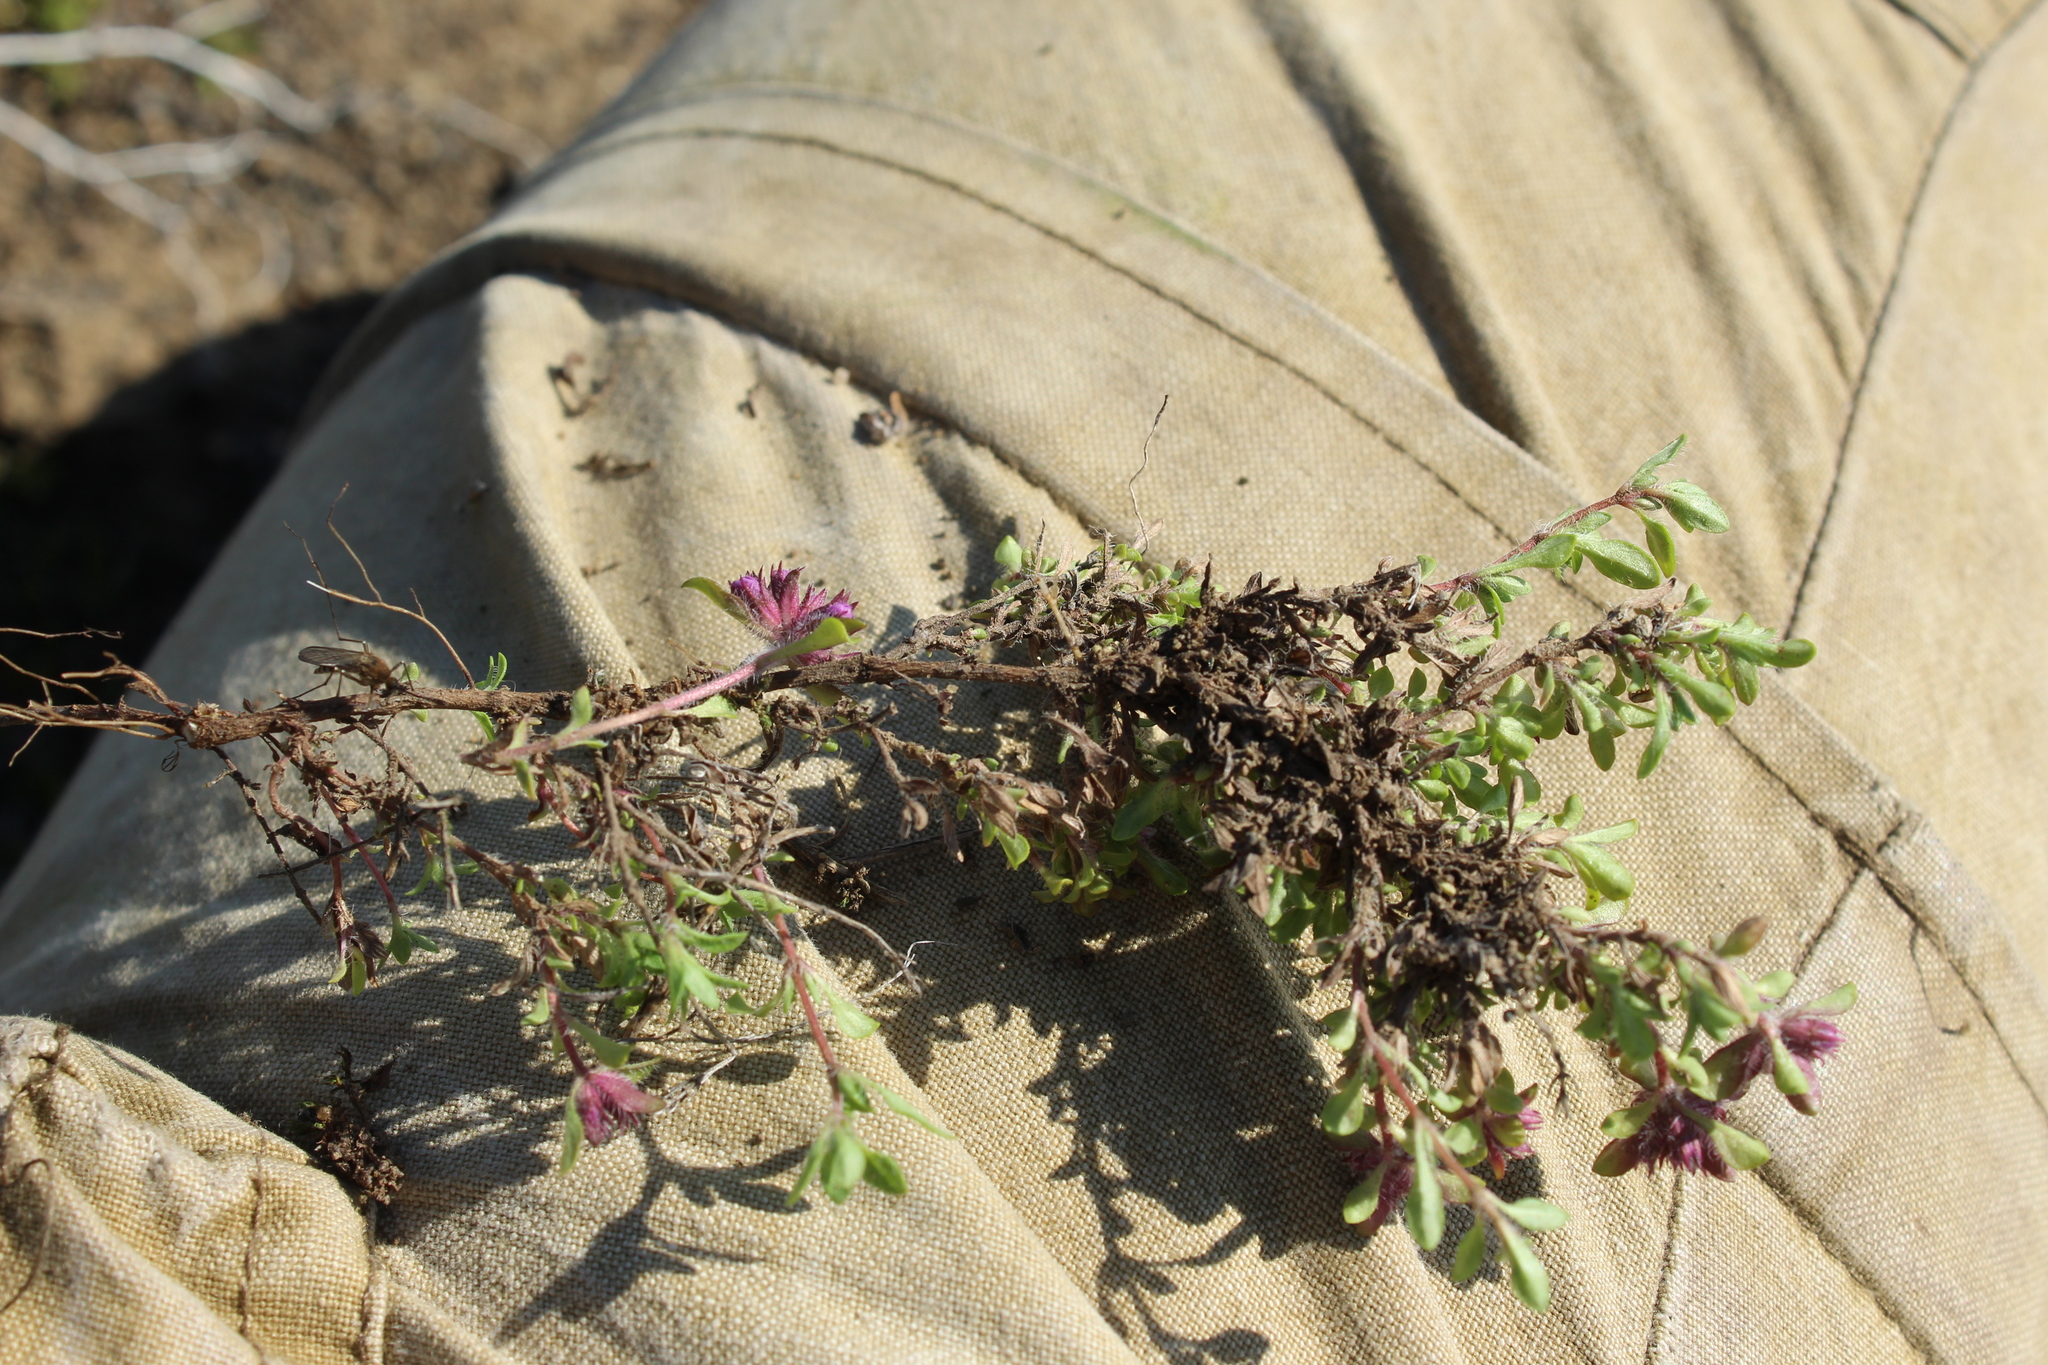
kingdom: Plantae
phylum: Tracheophyta
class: Magnoliopsida
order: Lamiales
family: Lamiaceae
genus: Thymus
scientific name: Thymus reverdattoanus
